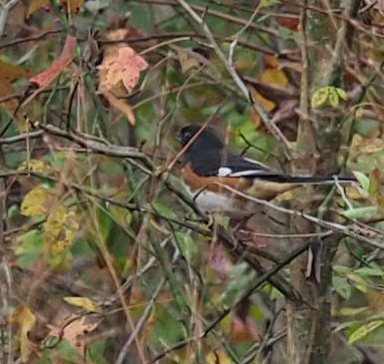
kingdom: Animalia
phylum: Chordata
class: Aves
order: Passeriformes
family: Passerellidae
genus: Pipilo
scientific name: Pipilo erythrophthalmus
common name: Eastern towhee
